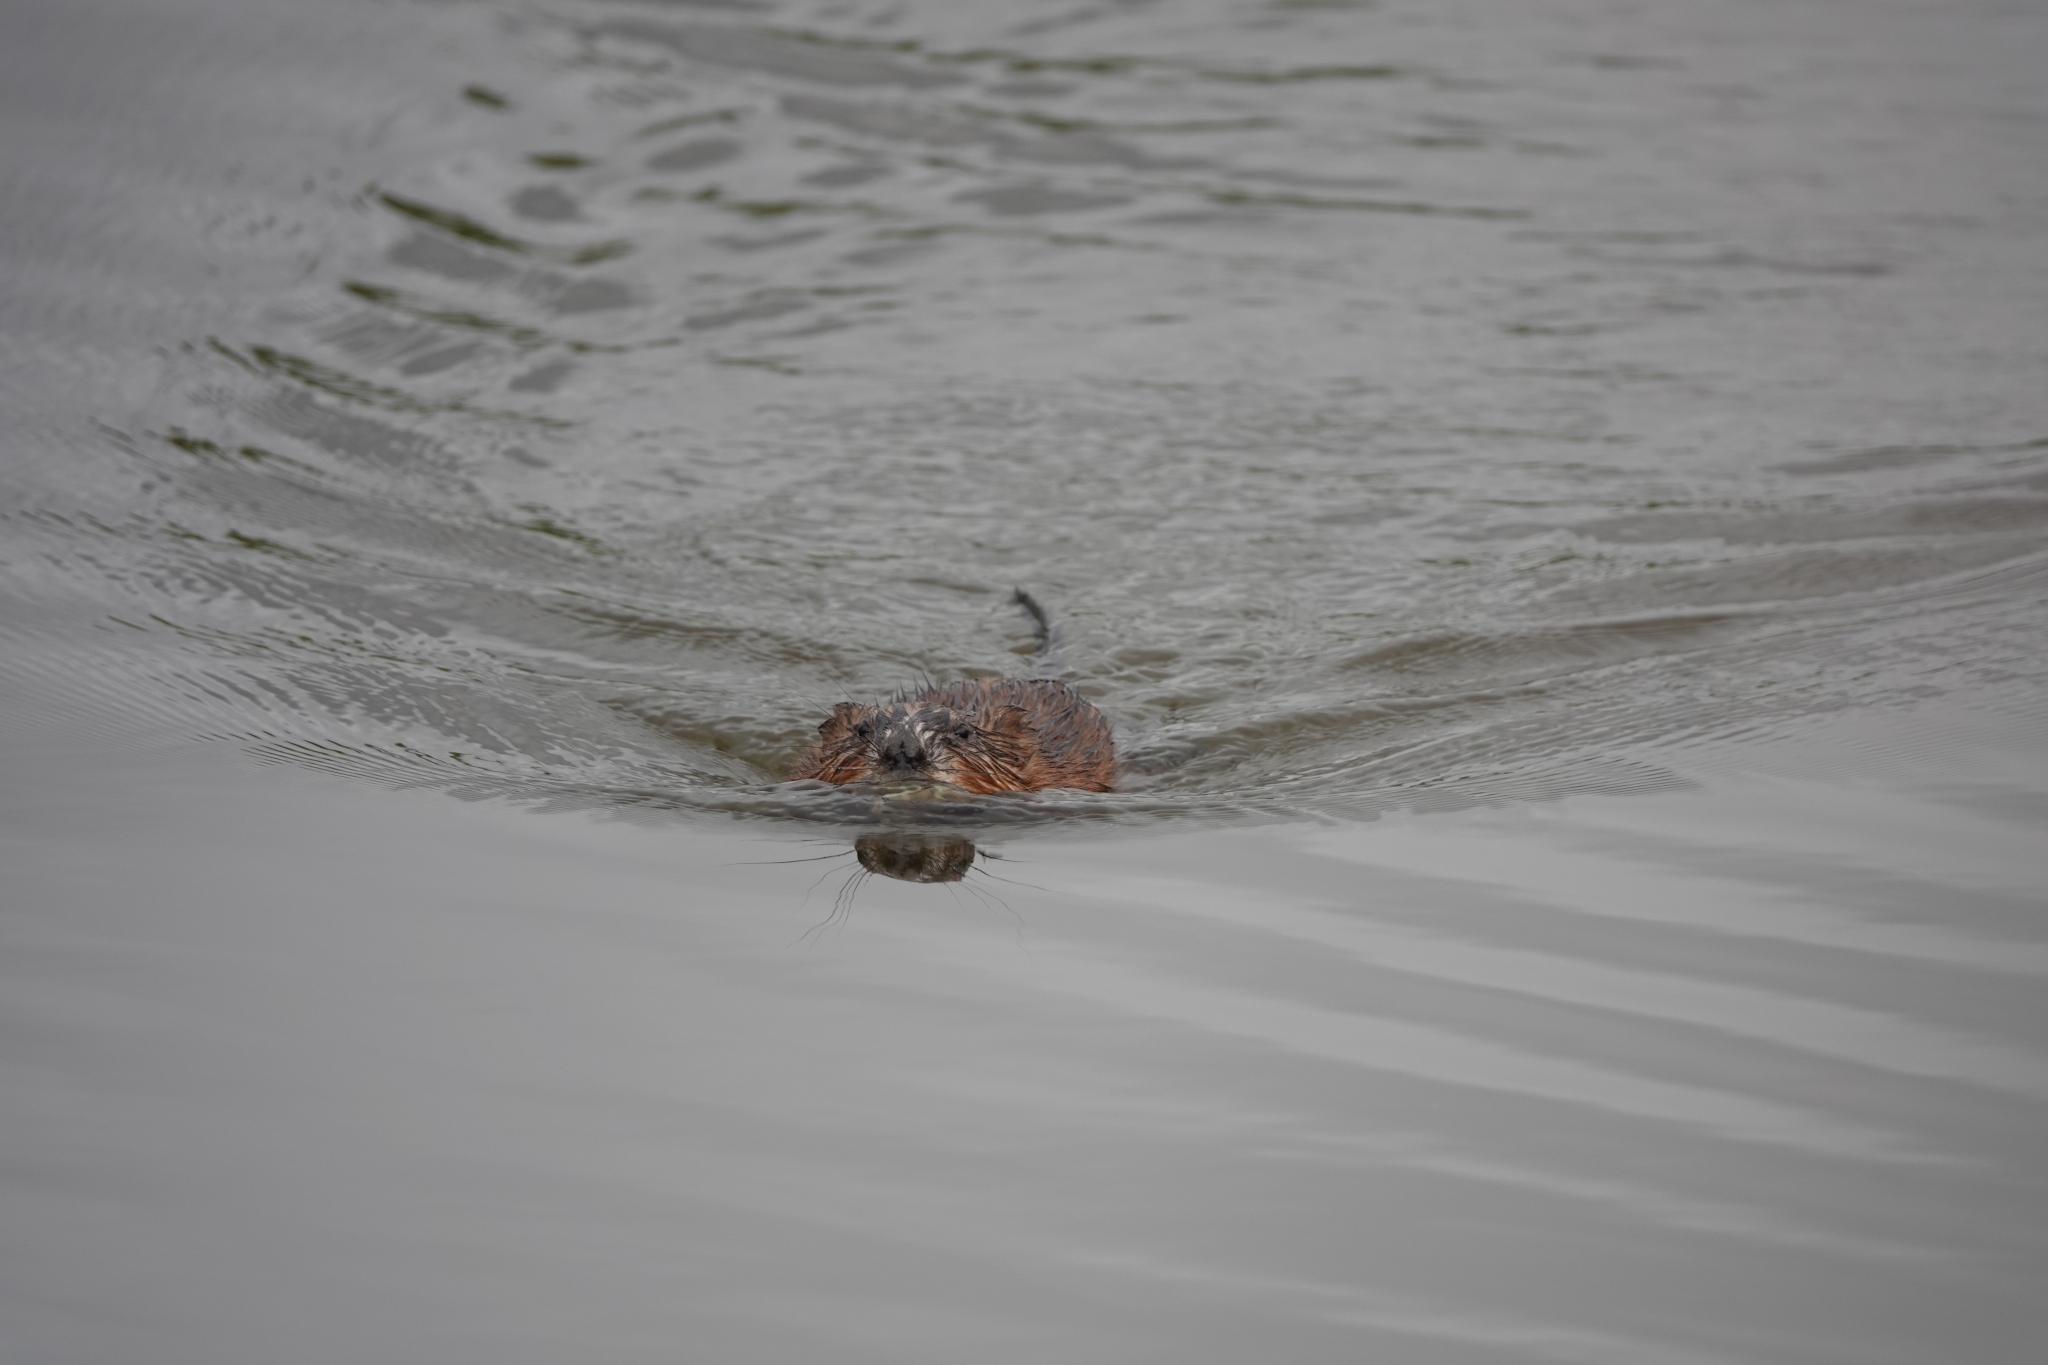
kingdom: Animalia
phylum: Chordata
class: Mammalia
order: Rodentia
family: Cricetidae
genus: Ondatra
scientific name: Ondatra zibethicus
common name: Muskrat
